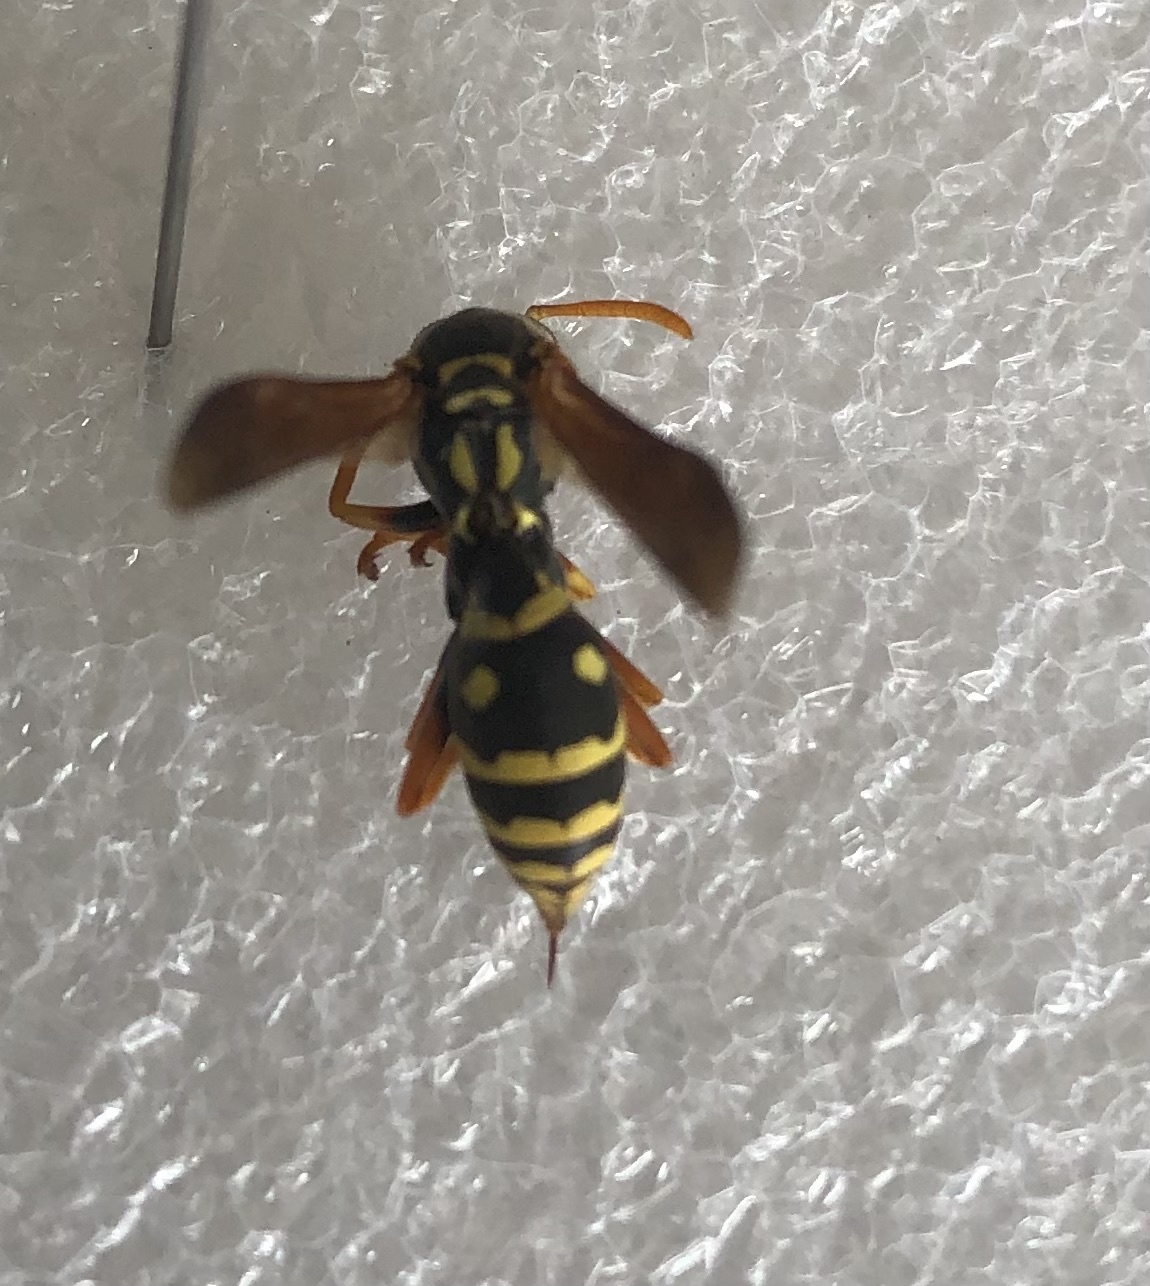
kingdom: Animalia
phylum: Arthropoda
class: Insecta
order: Hymenoptera
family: Eumenidae
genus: Polistes
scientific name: Polistes chinensis
